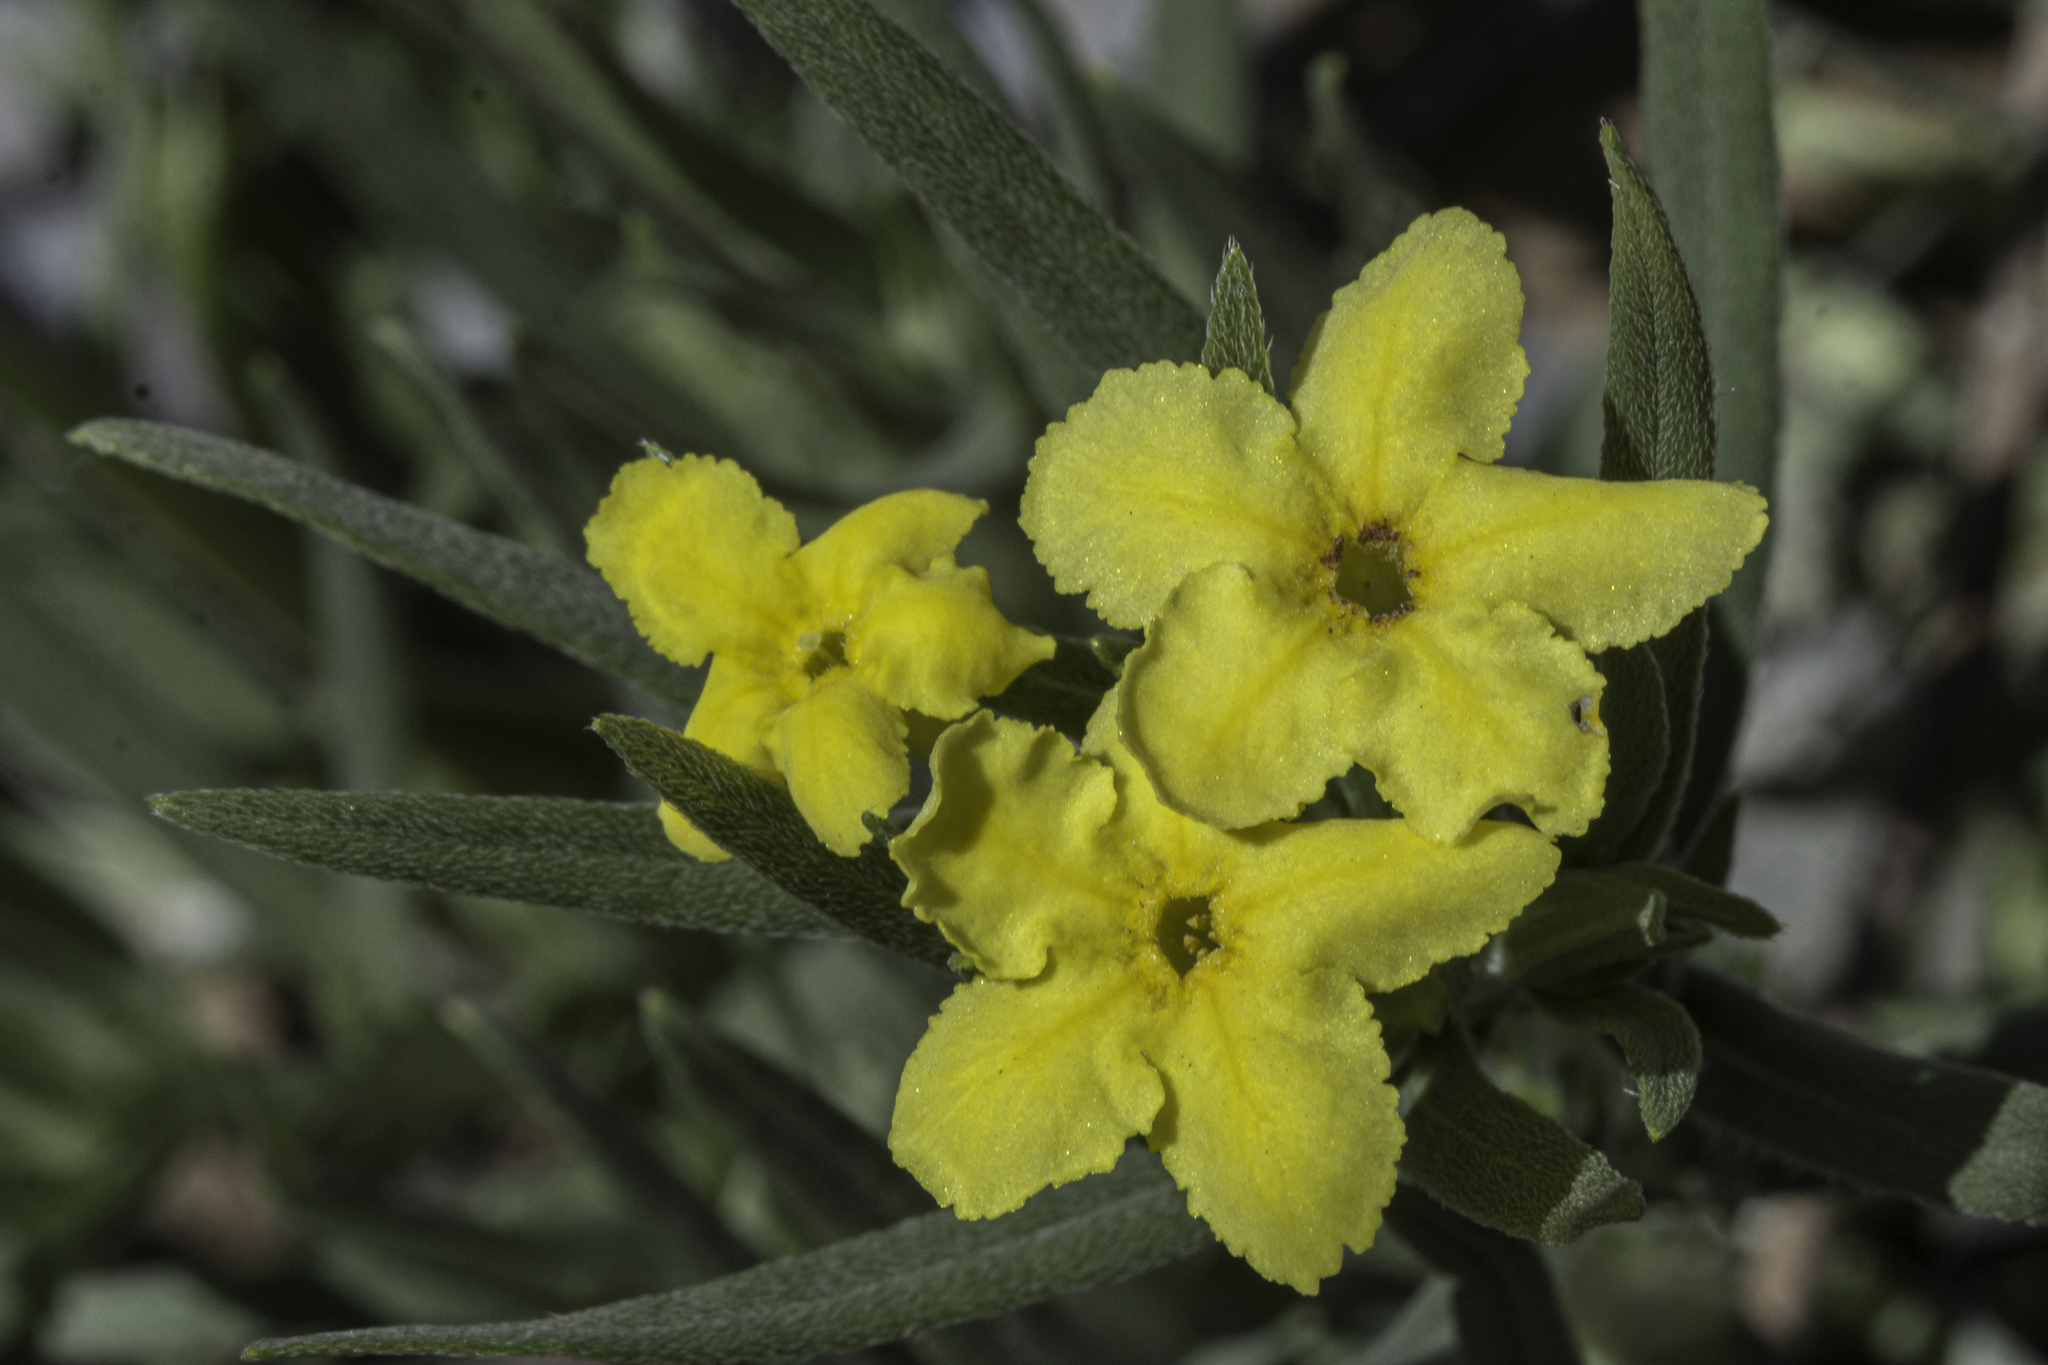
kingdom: Plantae
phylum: Tracheophyta
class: Magnoliopsida
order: Boraginales
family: Boraginaceae
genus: Lithospermum
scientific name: Lithospermum incisum
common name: Fringed gromwell
